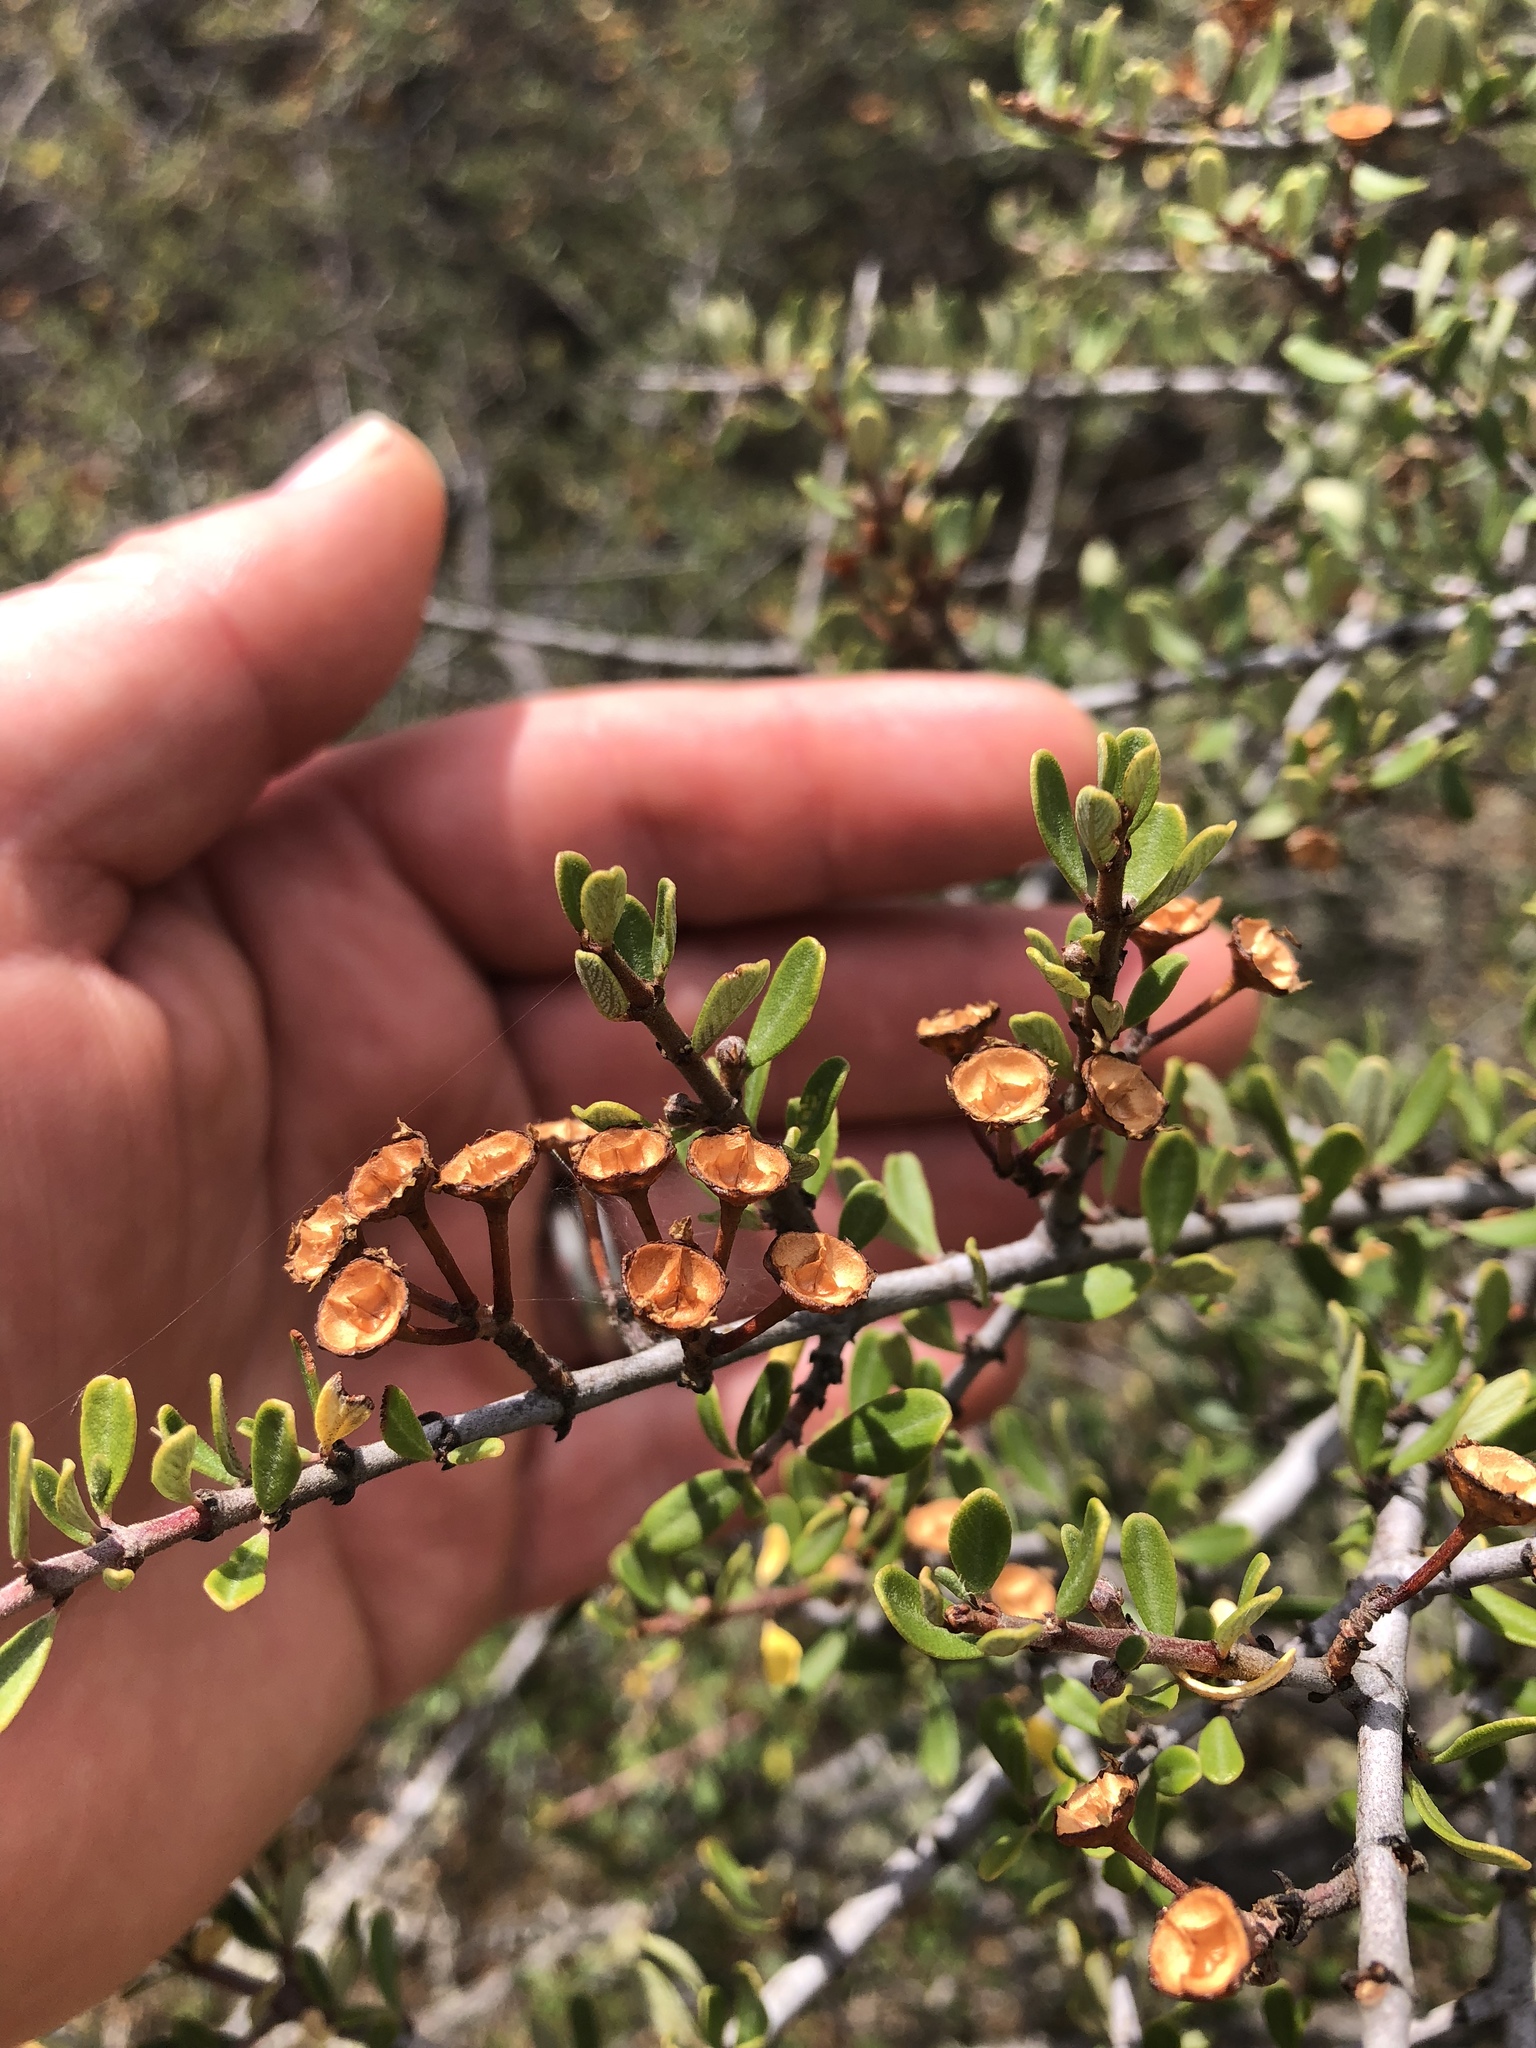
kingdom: Plantae
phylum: Tracheophyta
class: Magnoliopsida
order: Rosales
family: Rhamnaceae
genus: Ceanothus
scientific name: Ceanothus cuneatus
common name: Cuneate ceanothus
